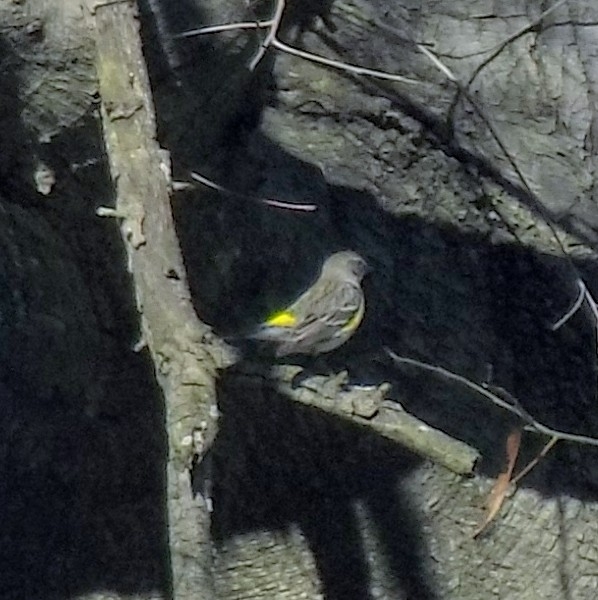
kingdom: Animalia
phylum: Chordata
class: Aves
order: Passeriformes
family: Parulidae
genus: Setophaga
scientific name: Setophaga coronata
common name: Myrtle warbler
